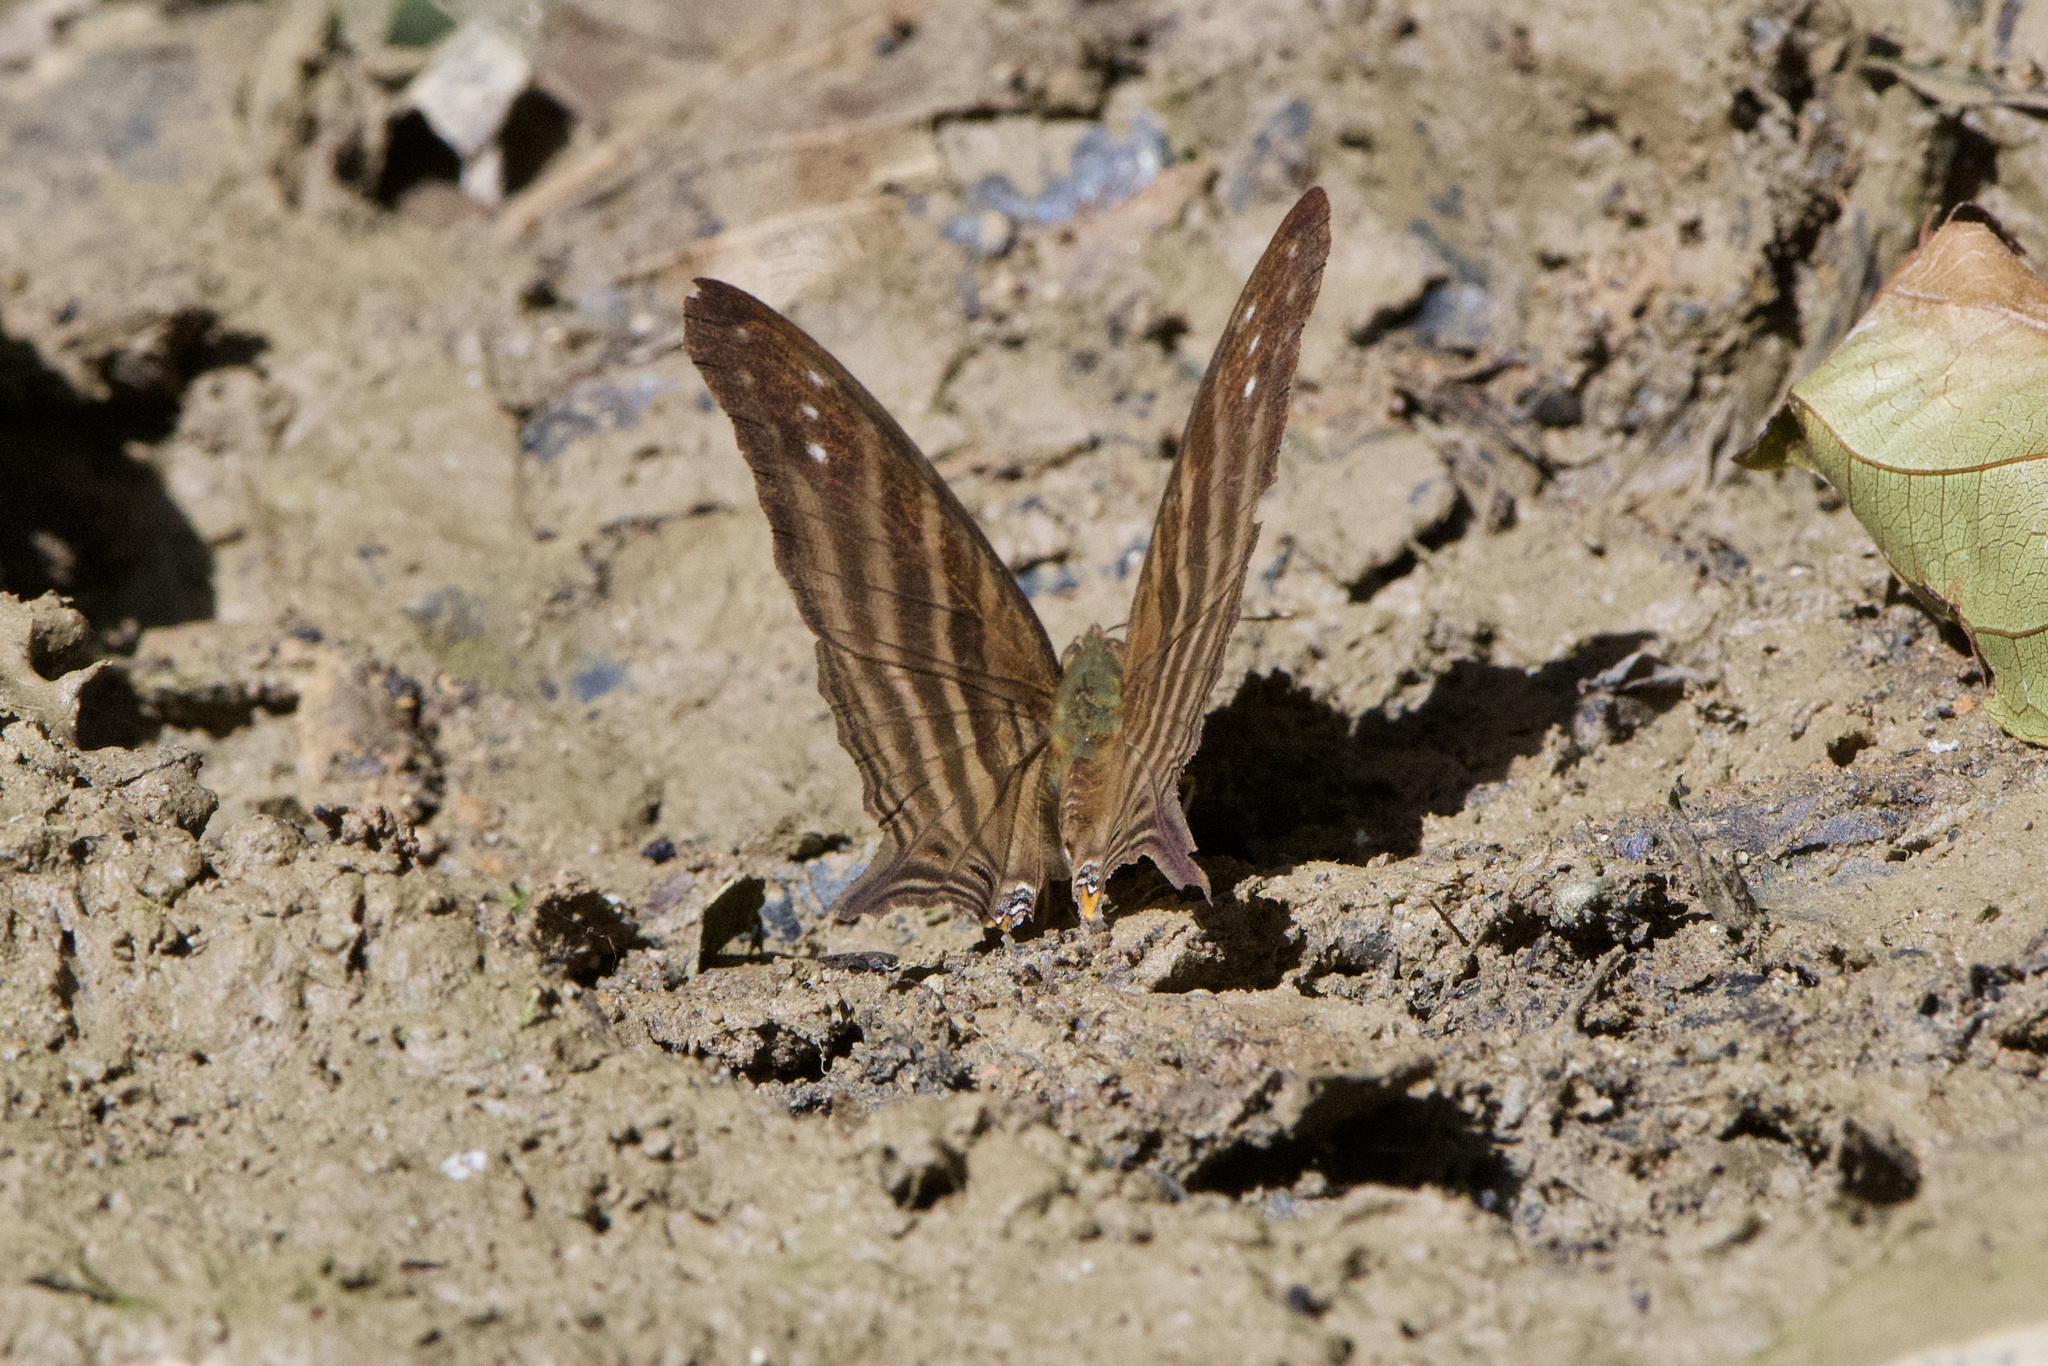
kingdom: Animalia
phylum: Arthropoda
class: Insecta
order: Lepidoptera
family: Nymphalidae
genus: Marpesia
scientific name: Marpesia chiron
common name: Many-banded daggerwing
